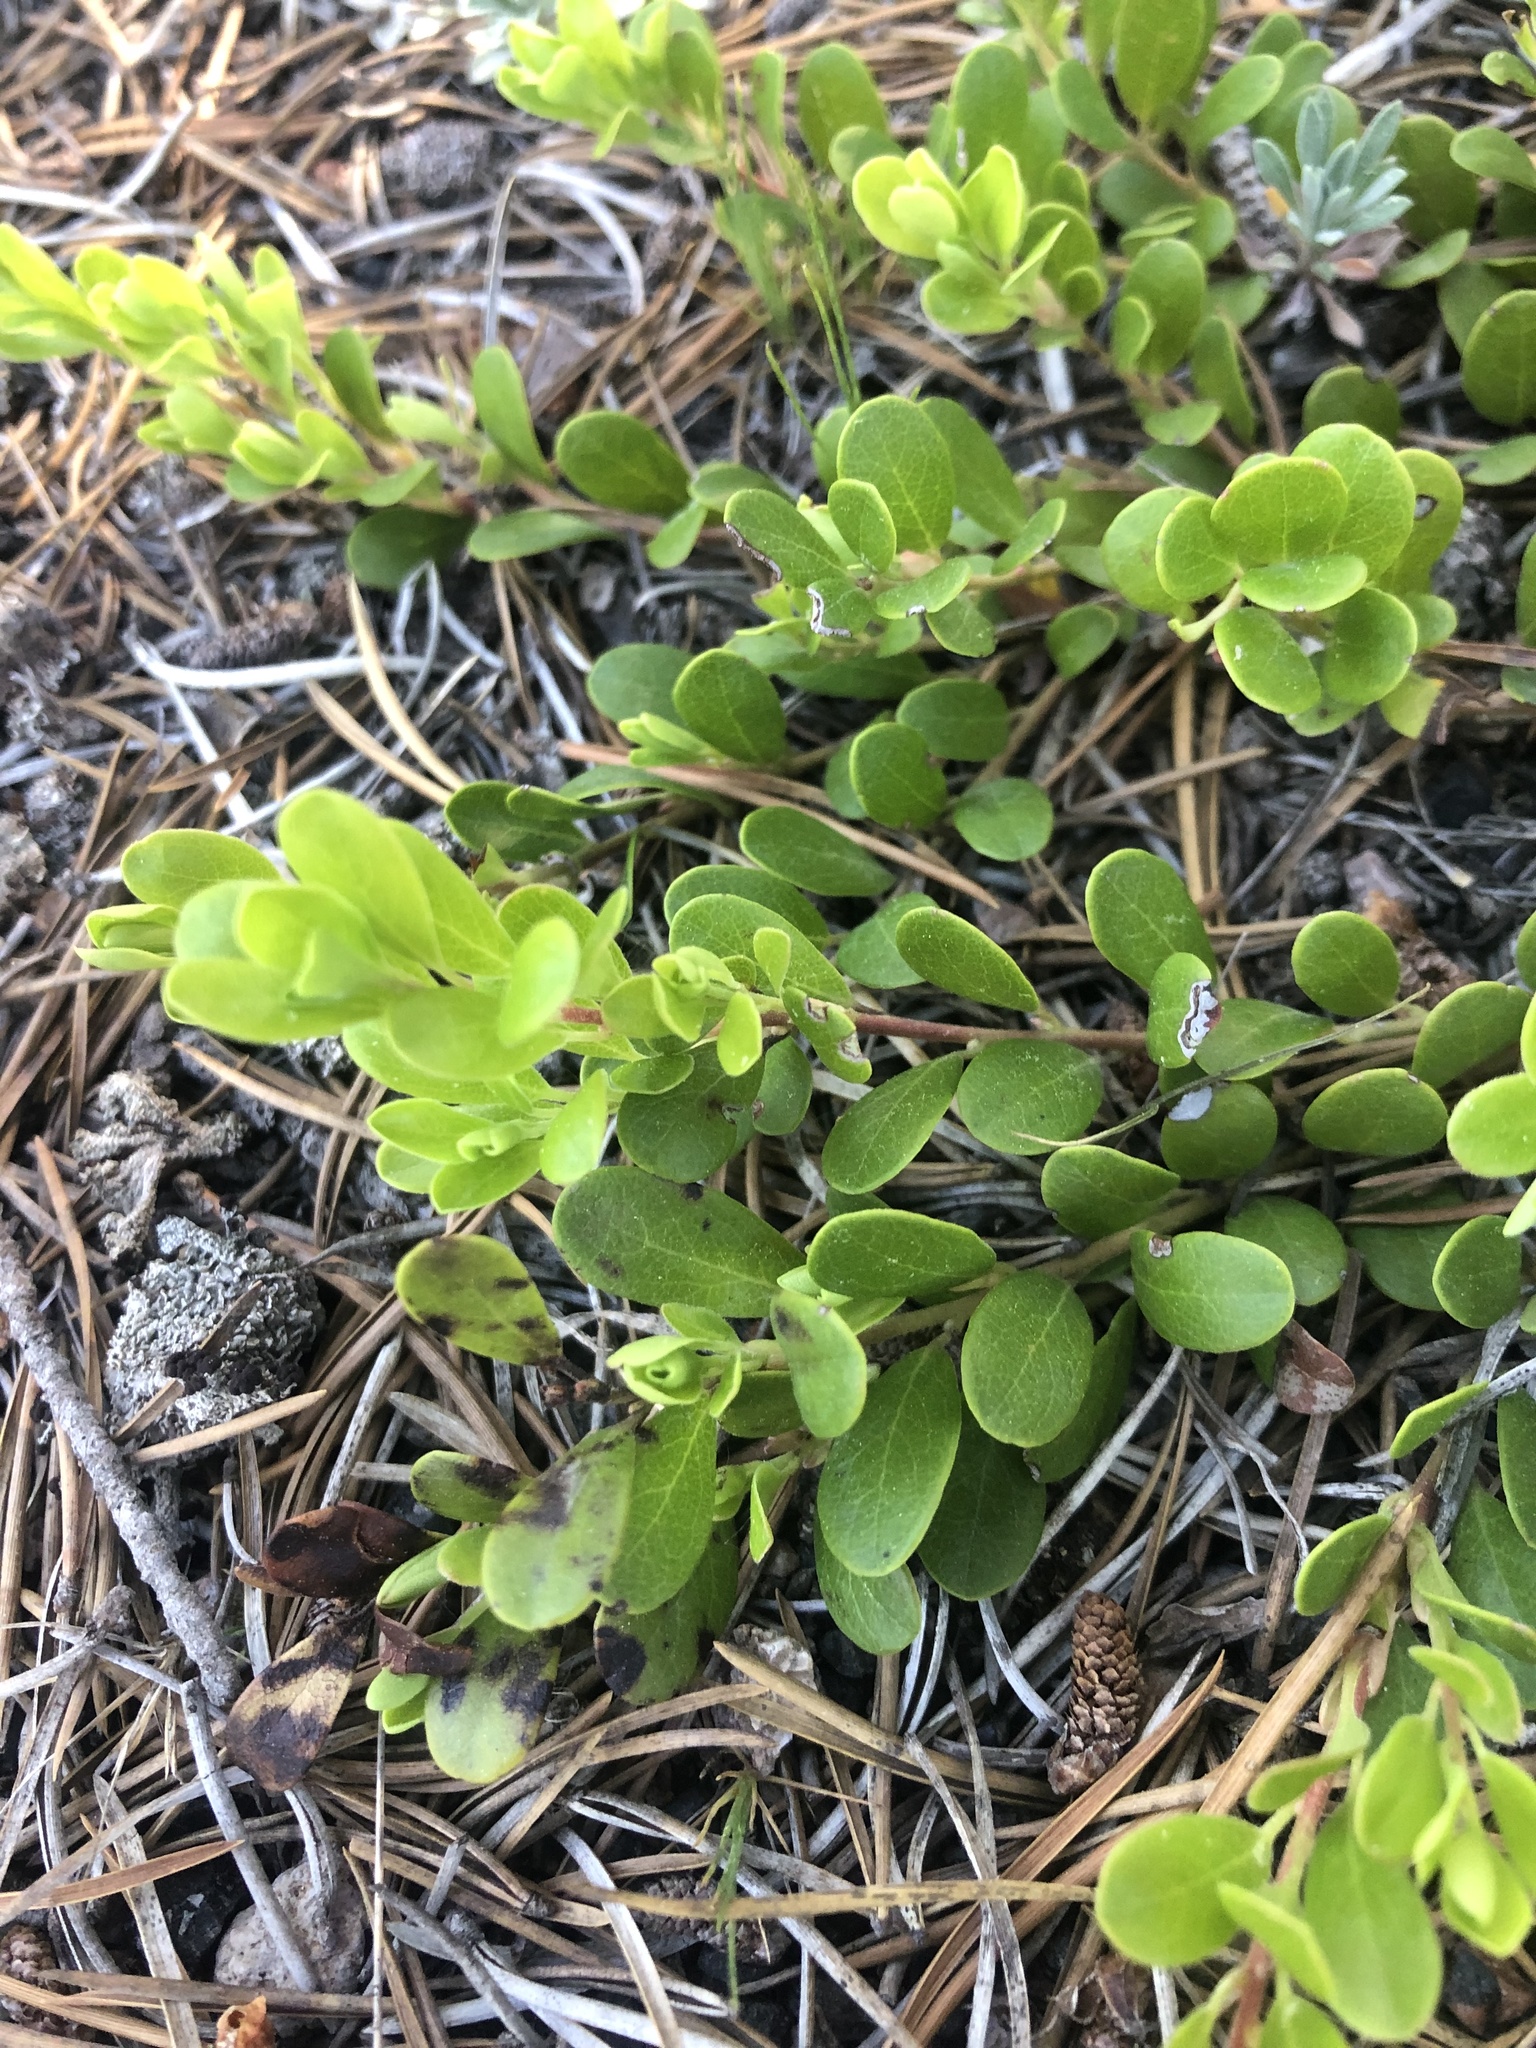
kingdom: Plantae
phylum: Tracheophyta
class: Magnoliopsida
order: Ericales
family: Ericaceae
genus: Arctostaphylos
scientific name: Arctostaphylos uva-ursi
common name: Bearberry
